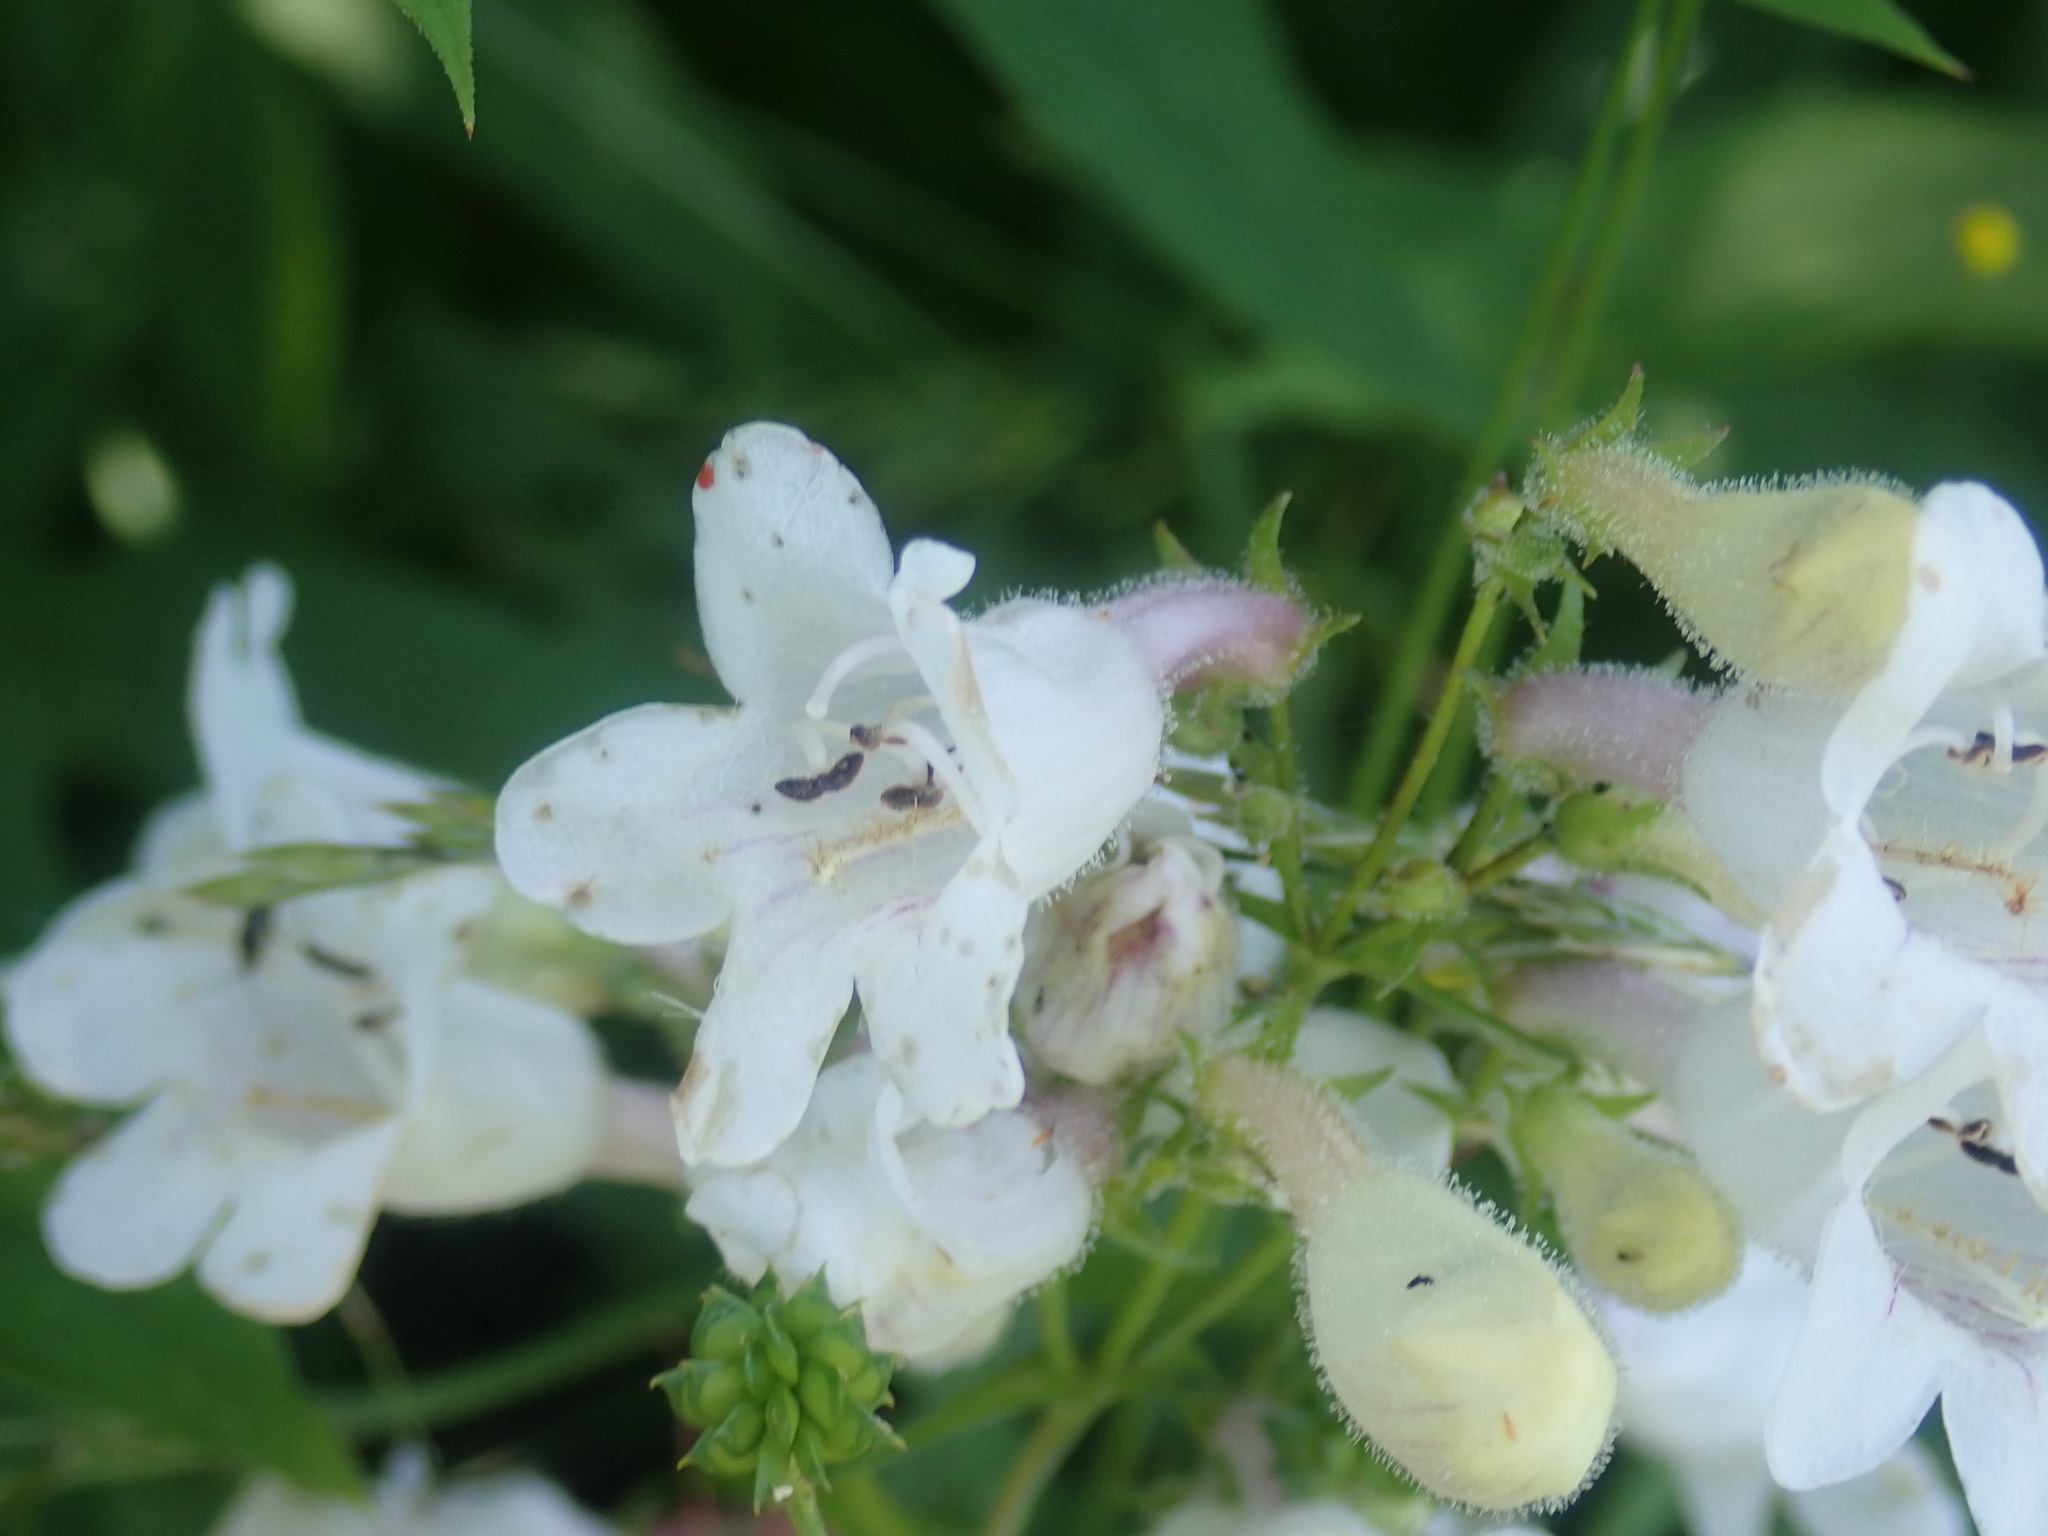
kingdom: Plantae
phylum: Tracheophyta
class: Magnoliopsida
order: Lamiales
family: Plantaginaceae
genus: Penstemon
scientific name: Penstemon digitalis
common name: Foxglove beardtongue
